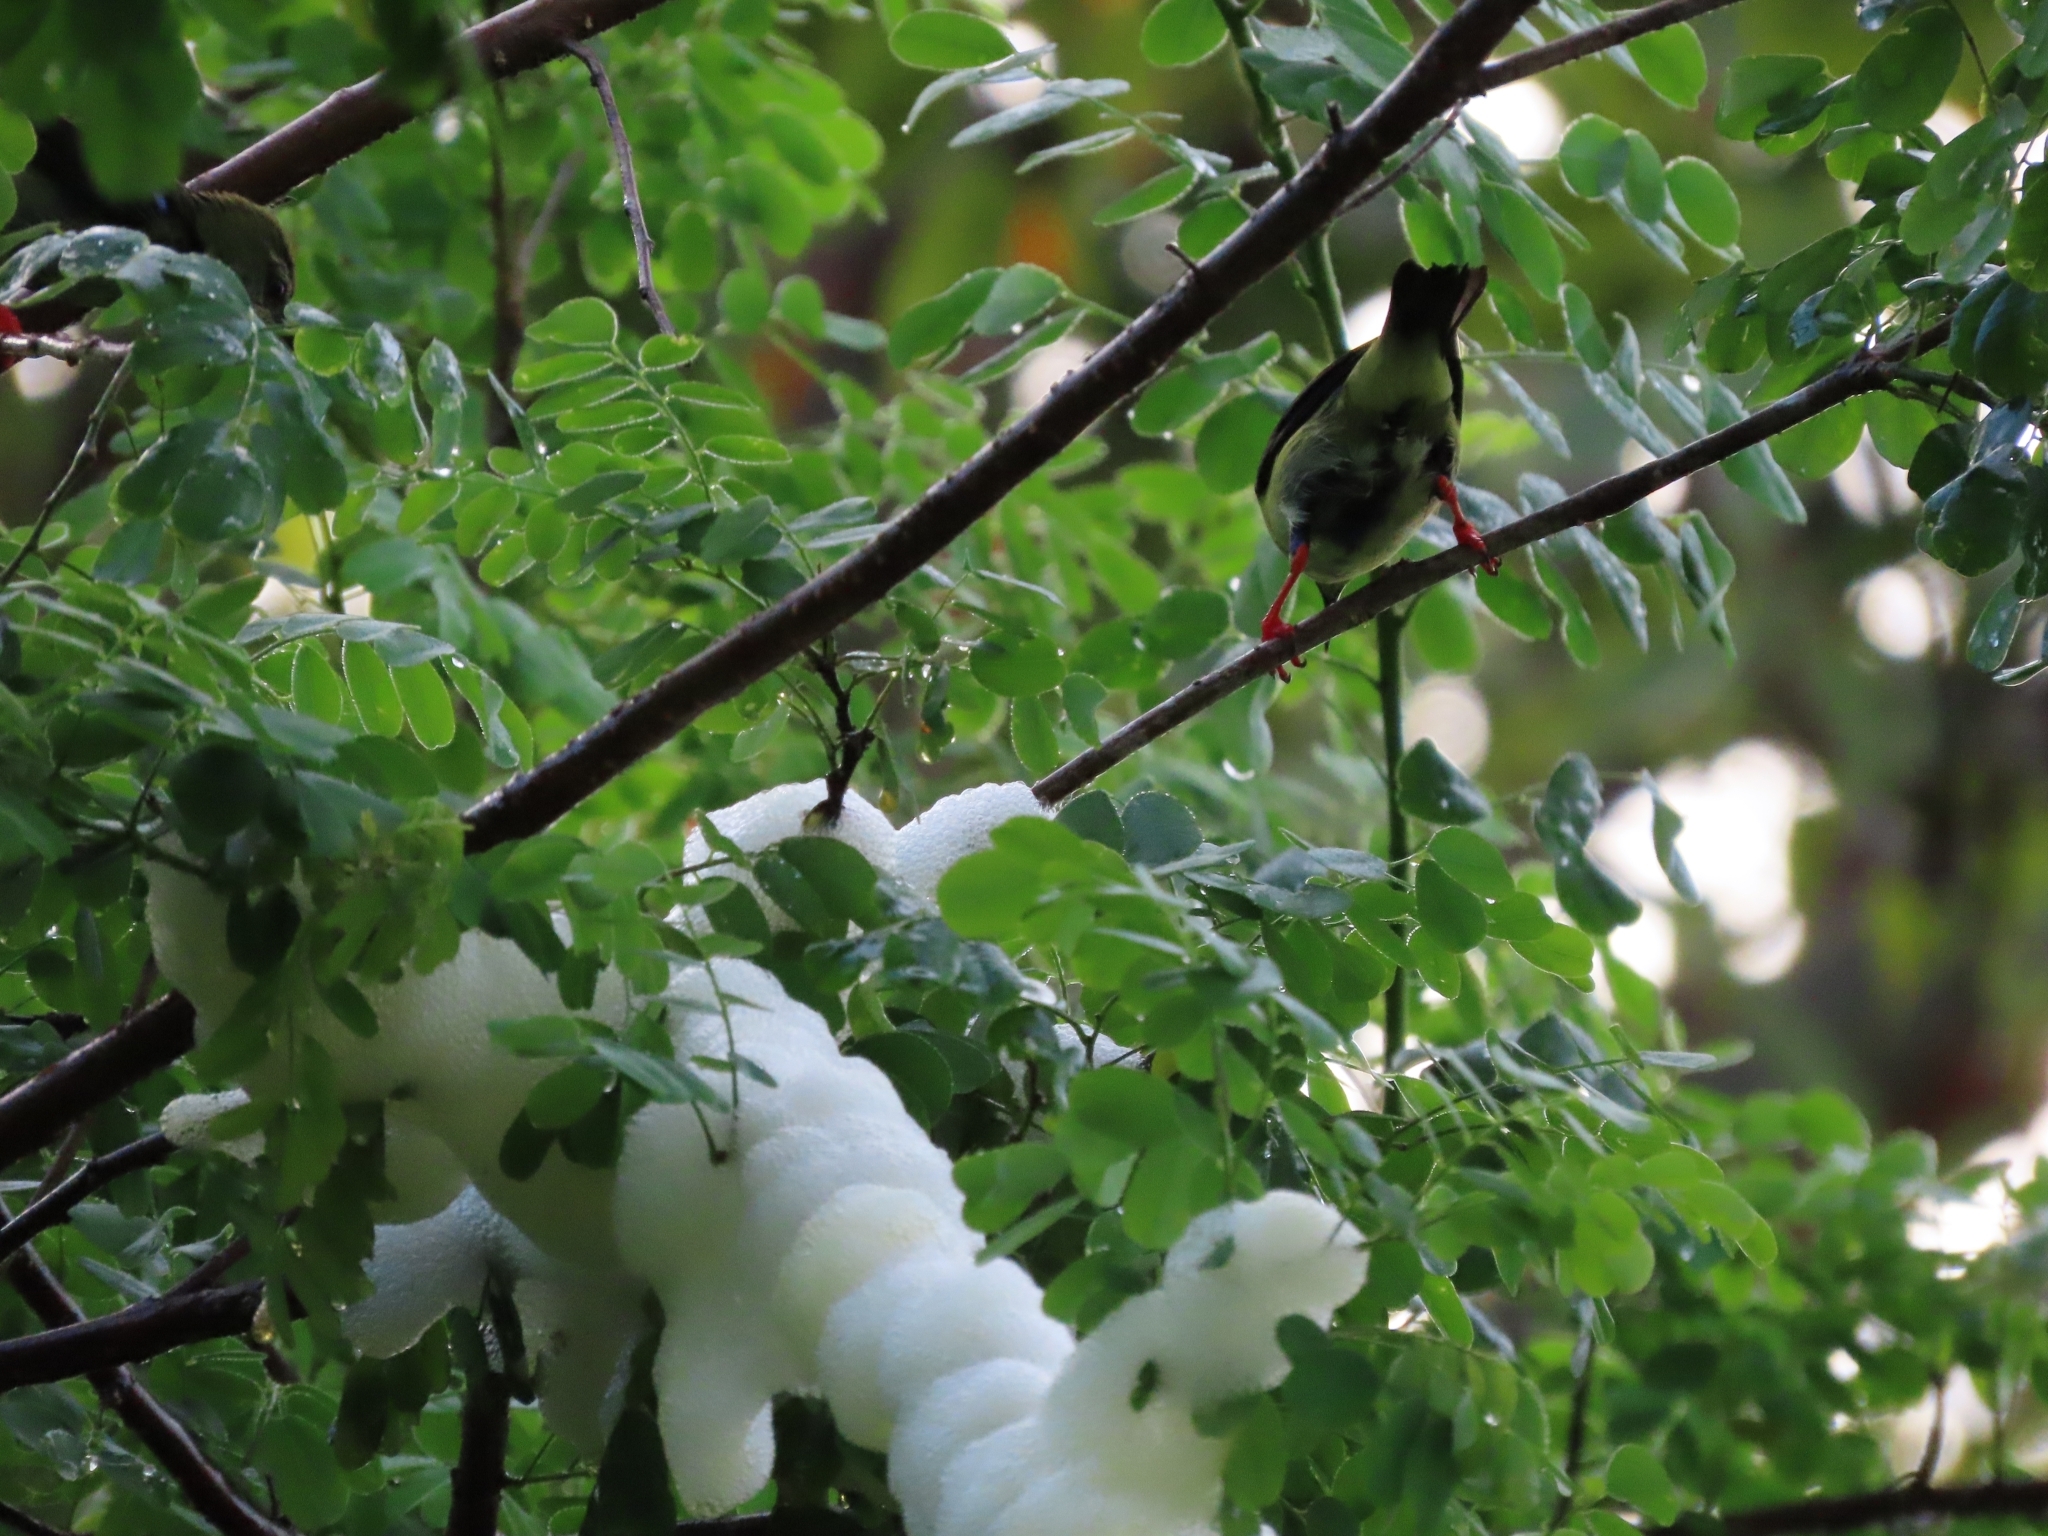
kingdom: Animalia
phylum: Chordata
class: Aves
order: Passeriformes
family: Thraupidae
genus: Cyanerpes
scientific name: Cyanerpes cyaneus
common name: Red-legged honeycreeper
